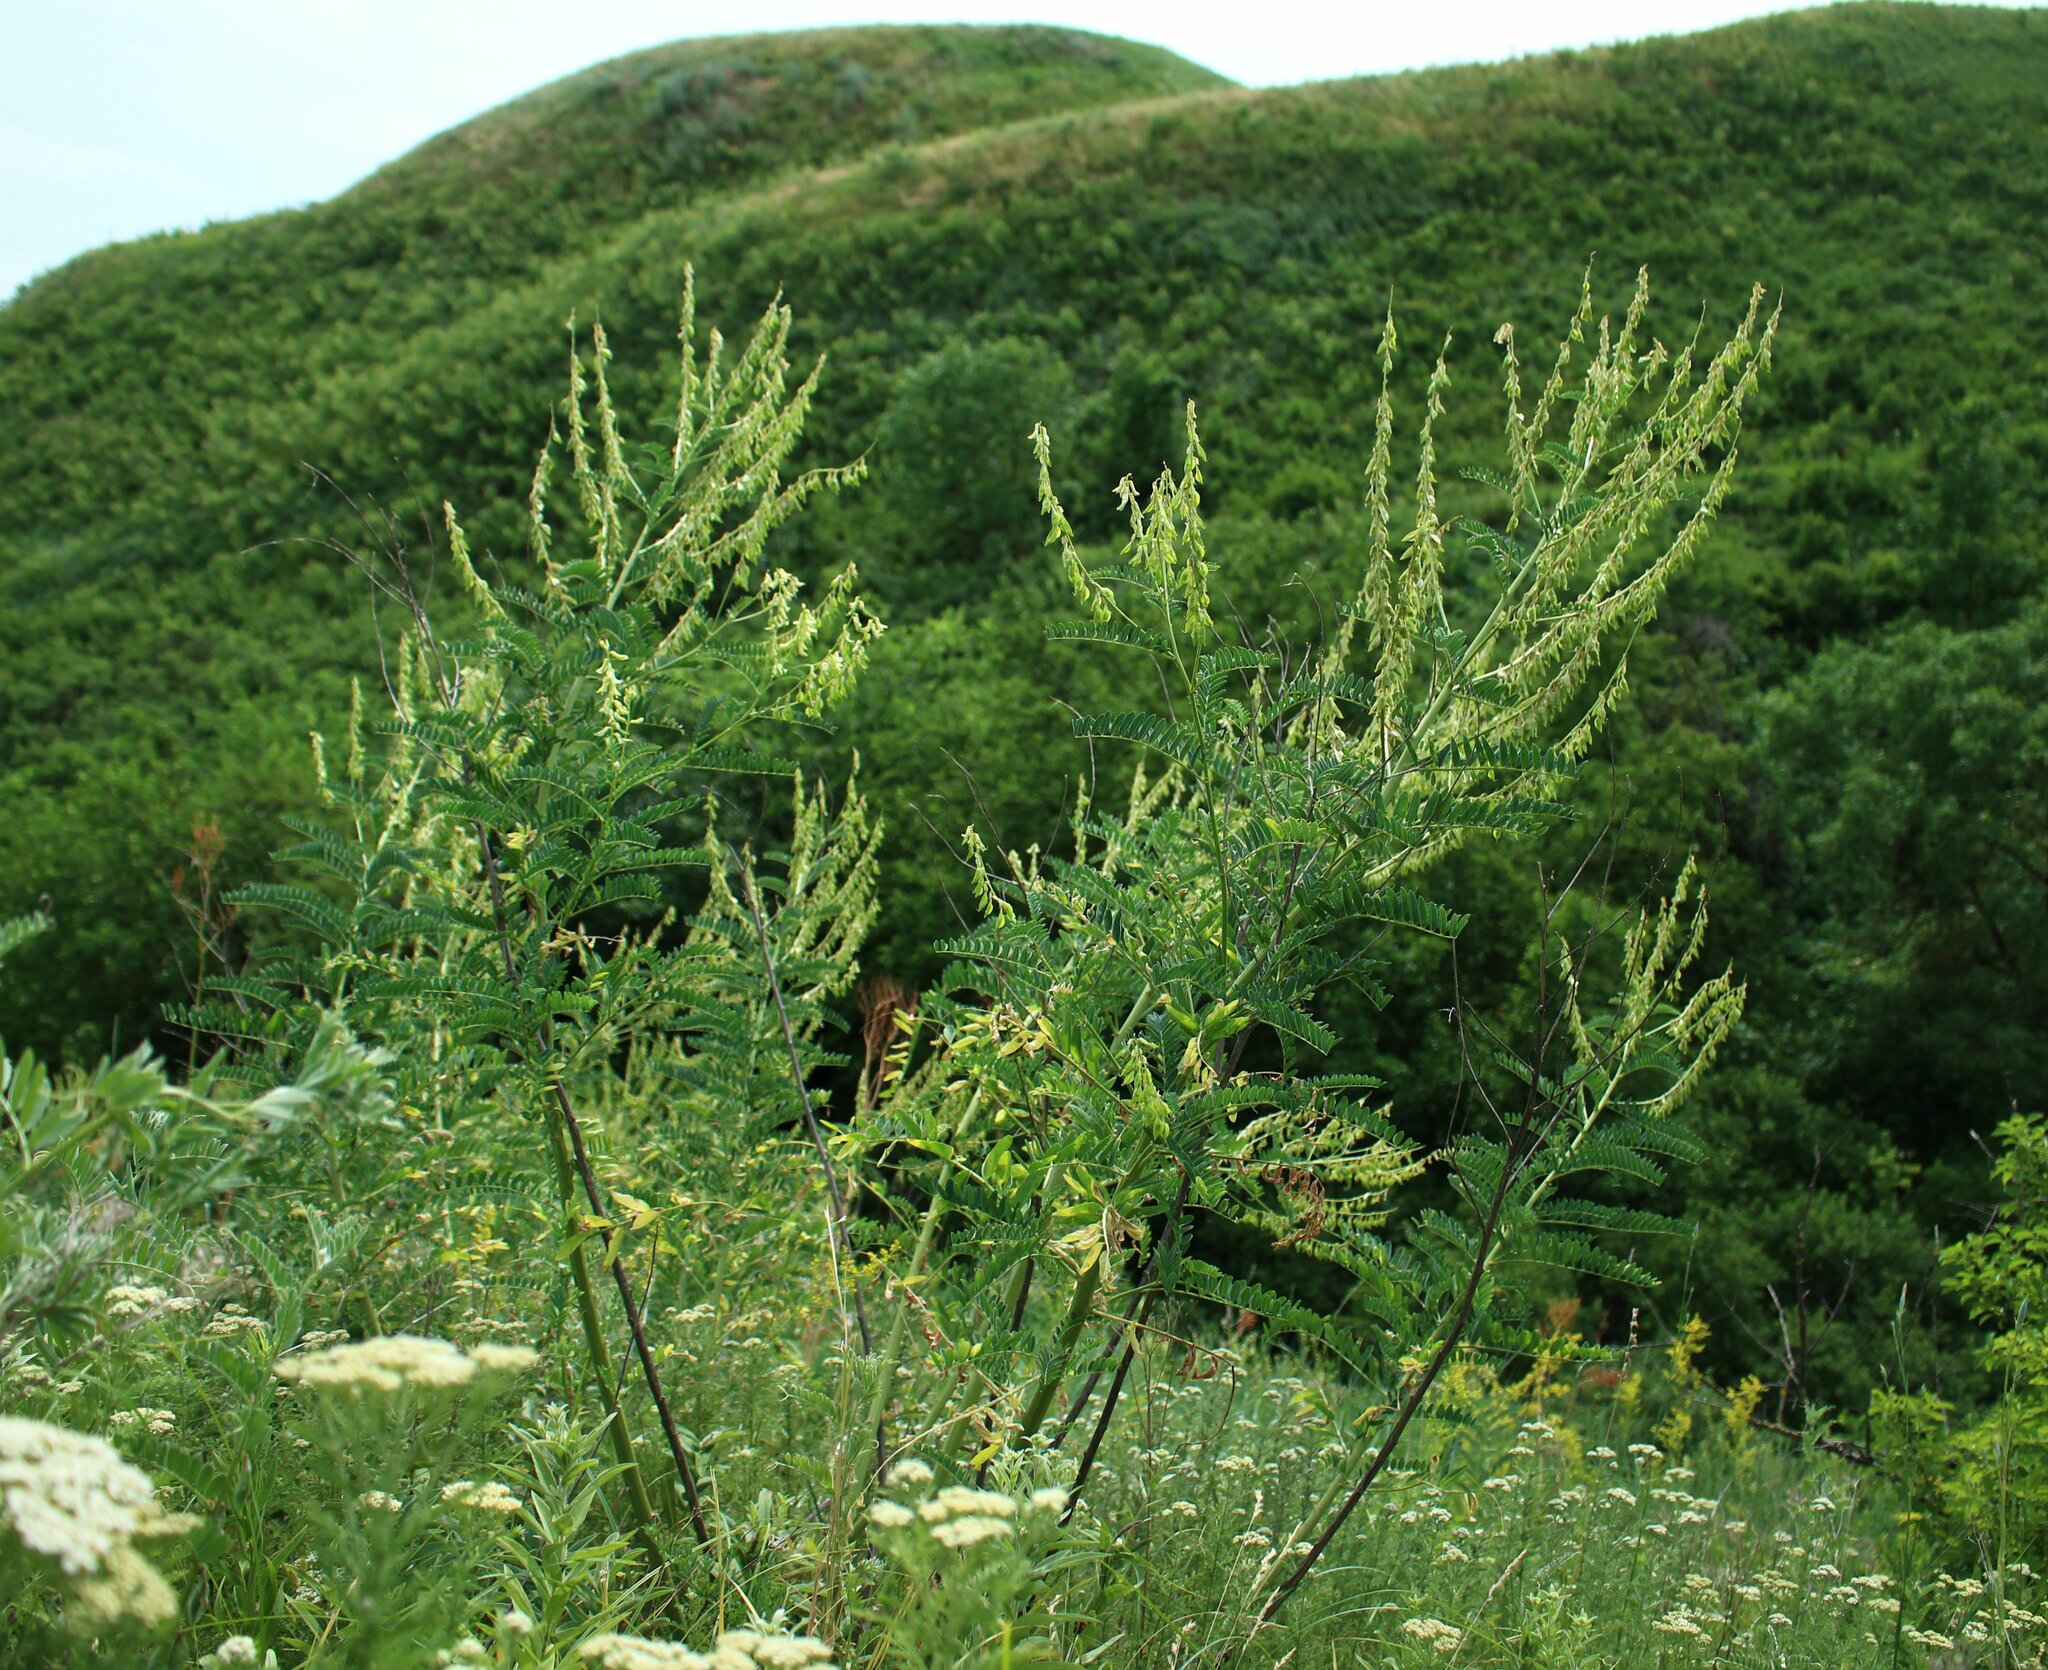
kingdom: Plantae
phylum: Tracheophyta
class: Magnoliopsida
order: Fabales
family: Fabaceae
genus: Astragalus
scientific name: Astragalus galegiformis
